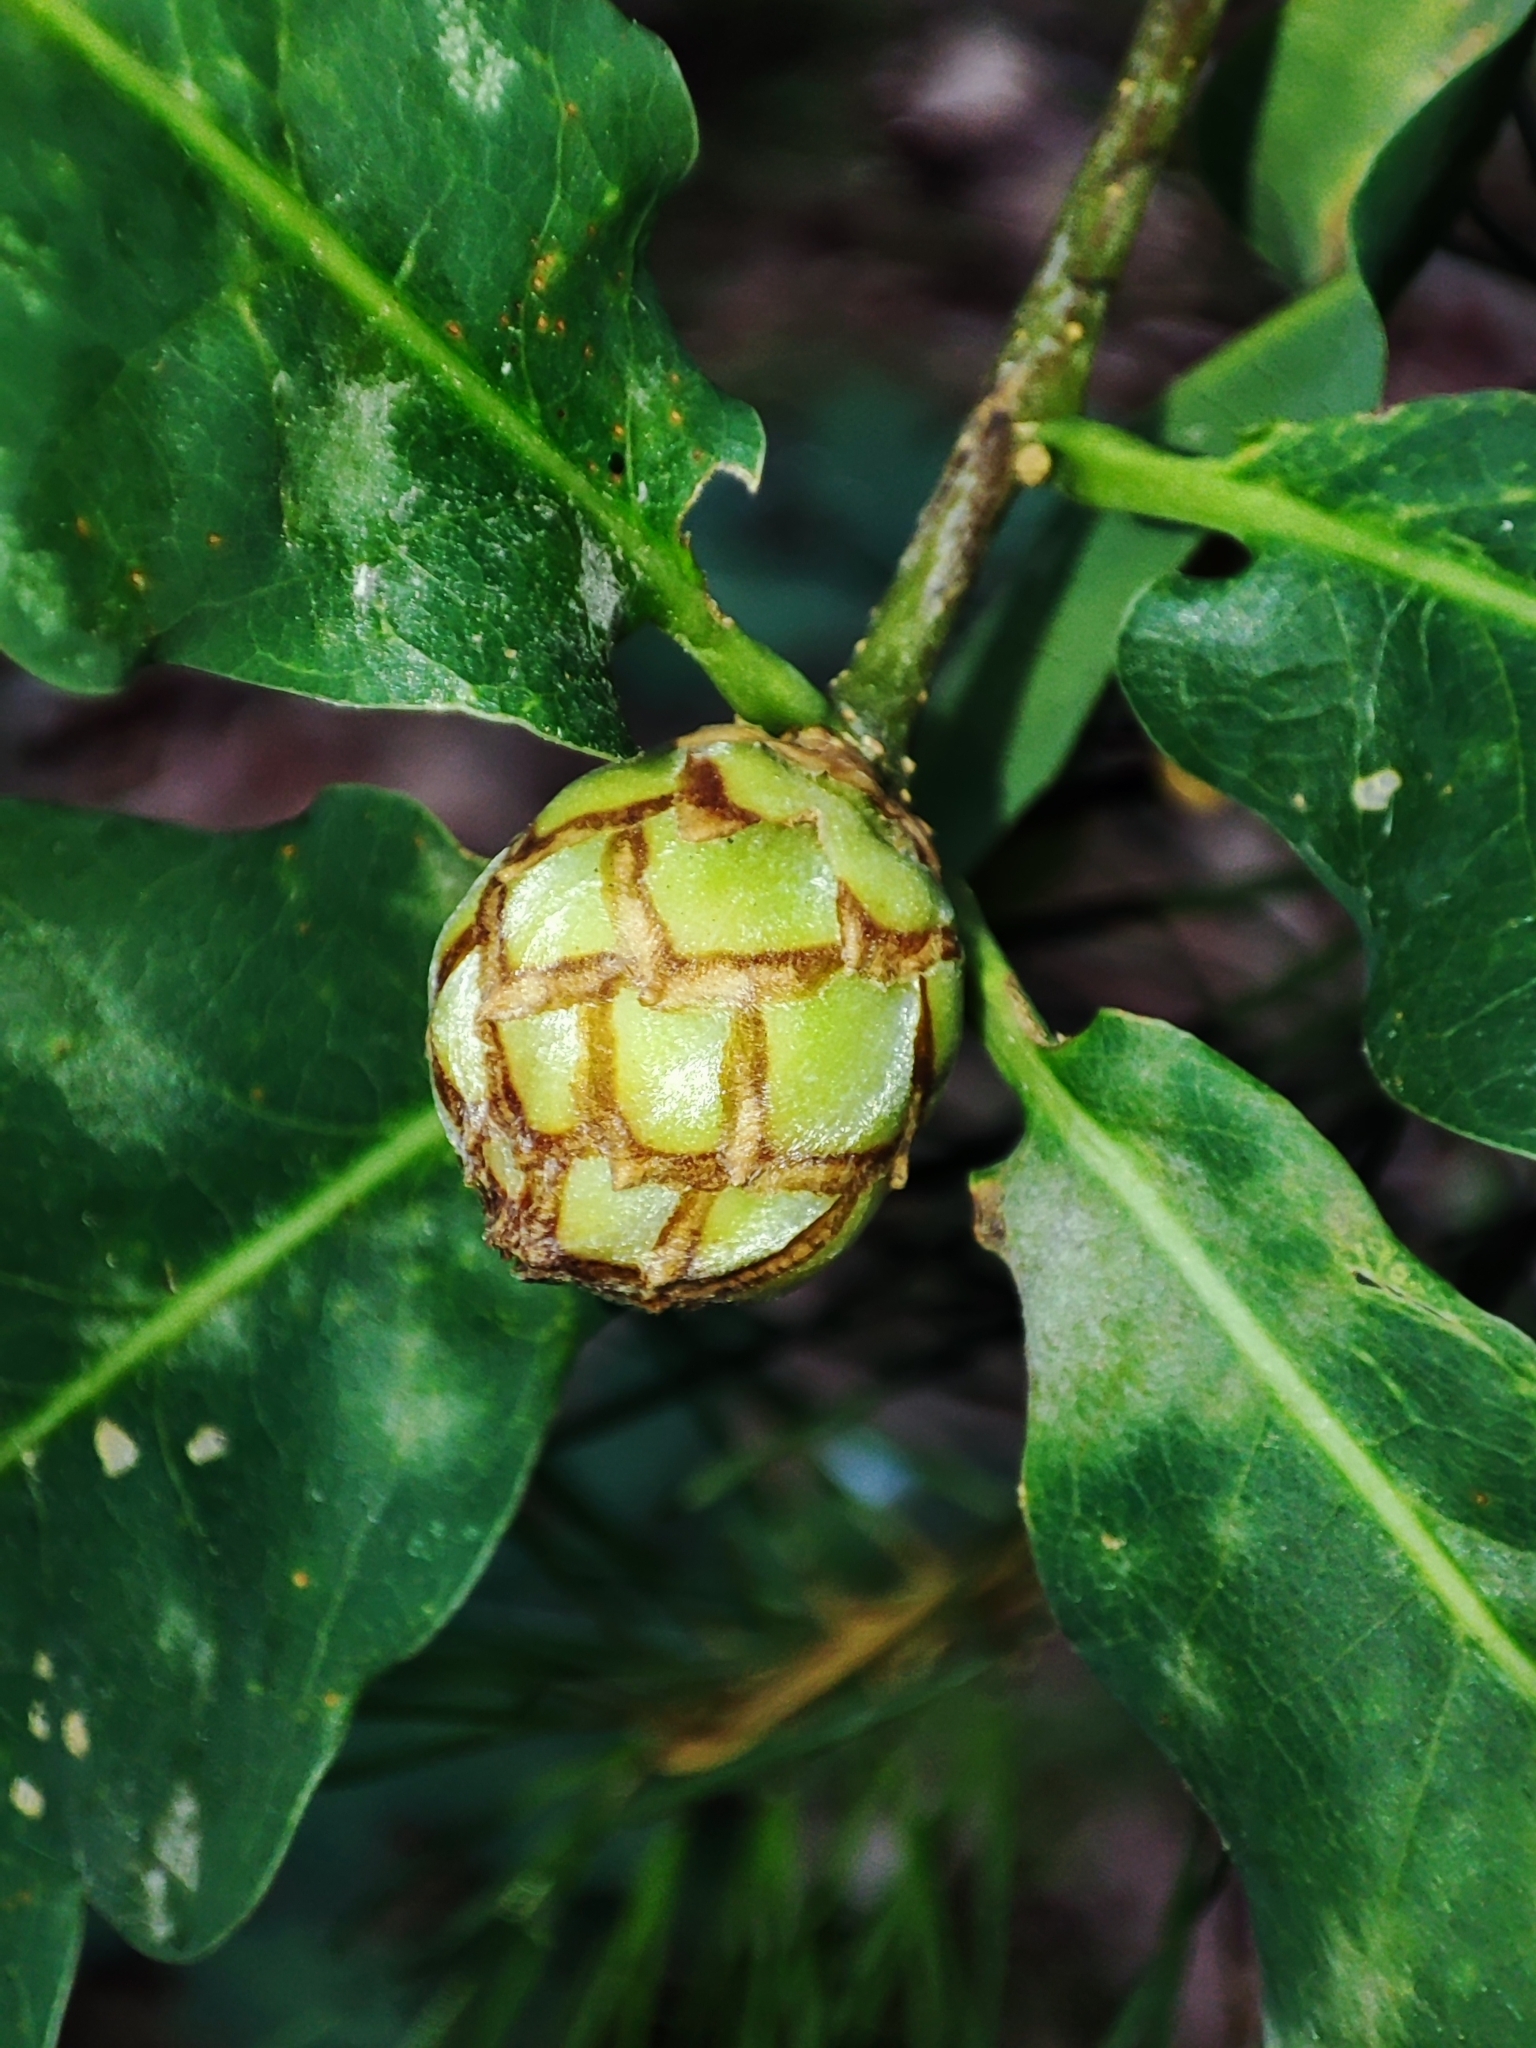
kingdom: Animalia
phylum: Arthropoda
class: Insecta
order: Hymenoptera
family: Cynipidae
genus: Andricus
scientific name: Andricus foecundatrix
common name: Artichoke gall
